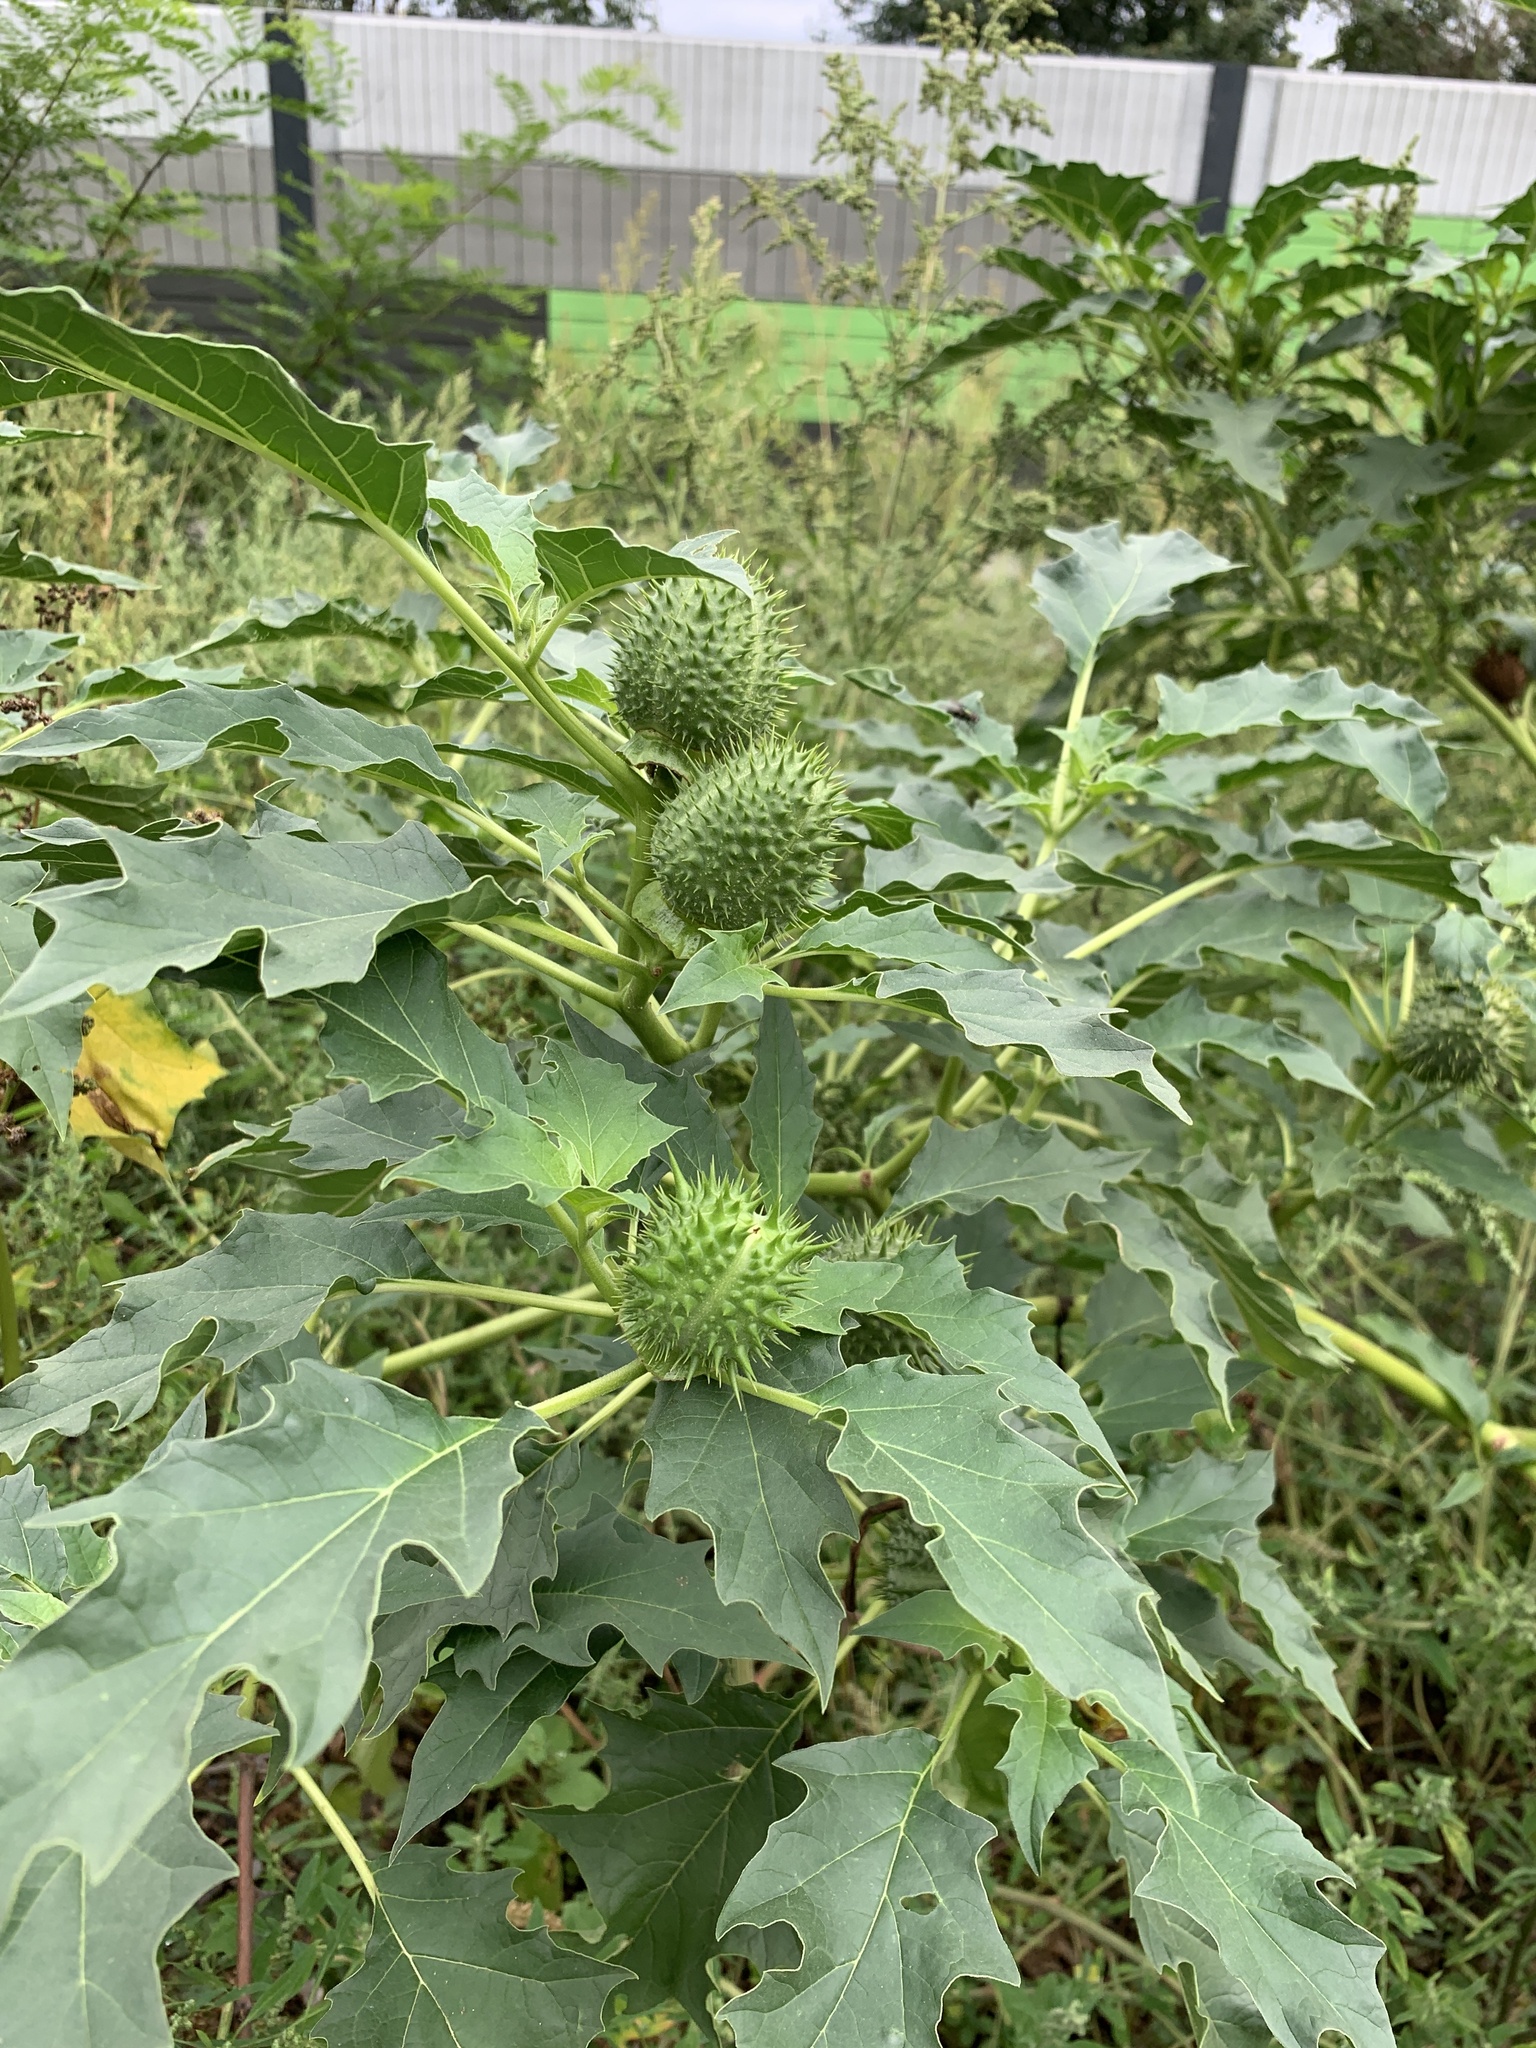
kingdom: Plantae
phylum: Tracheophyta
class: Magnoliopsida
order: Solanales
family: Solanaceae
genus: Datura
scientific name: Datura stramonium
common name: Thorn-apple
